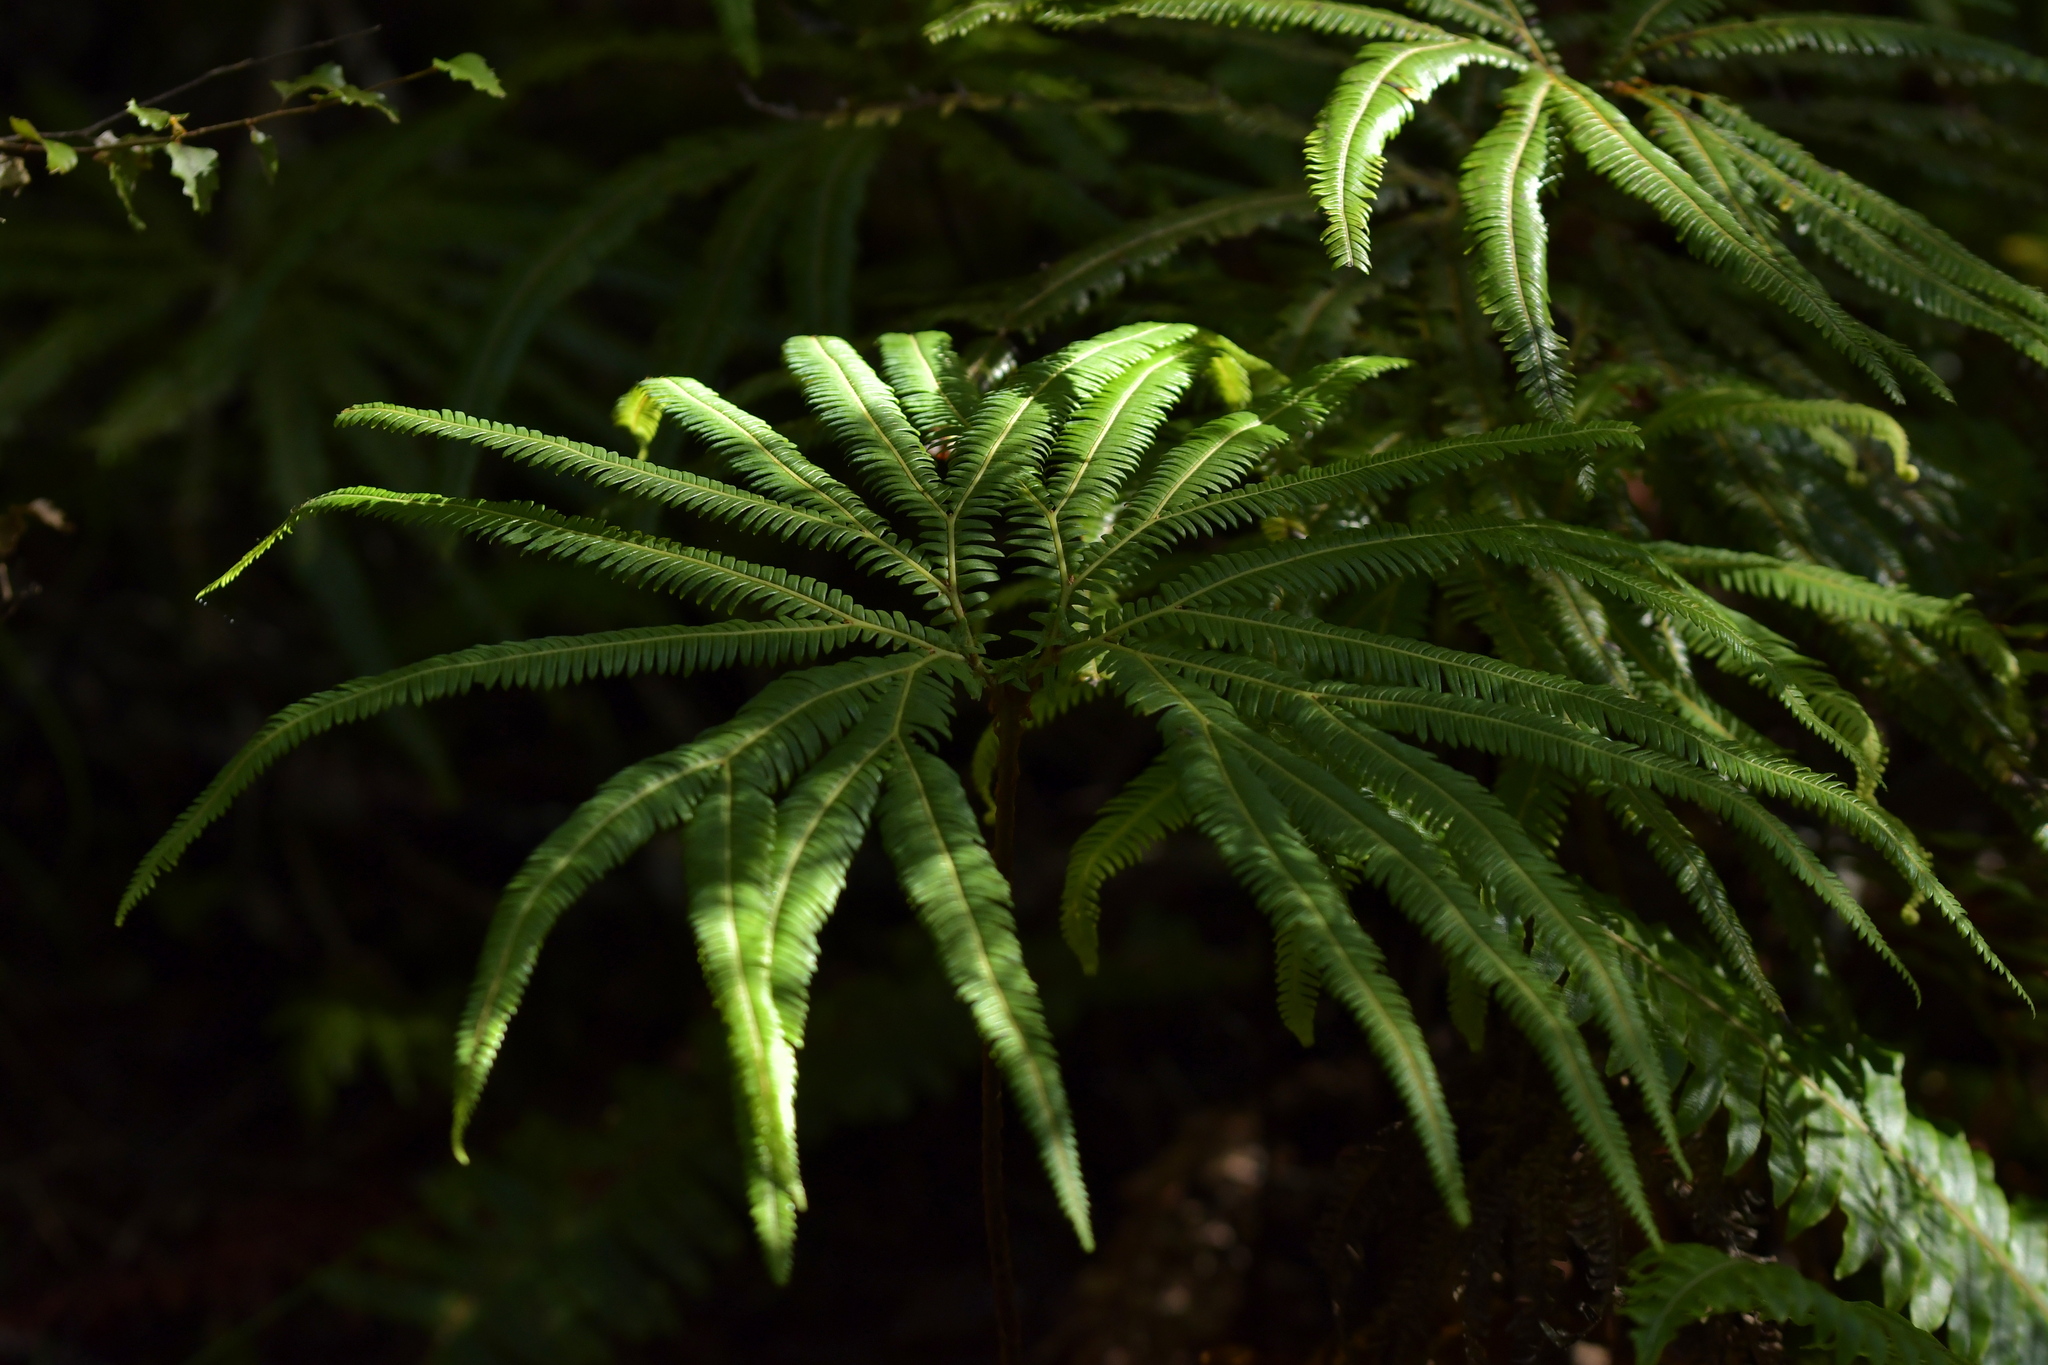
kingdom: Plantae
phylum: Tracheophyta
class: Polypodiopsida
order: Gleicheniales
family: Gleicheniaceae
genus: Sticherus
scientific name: Sticherus cunninghamii
